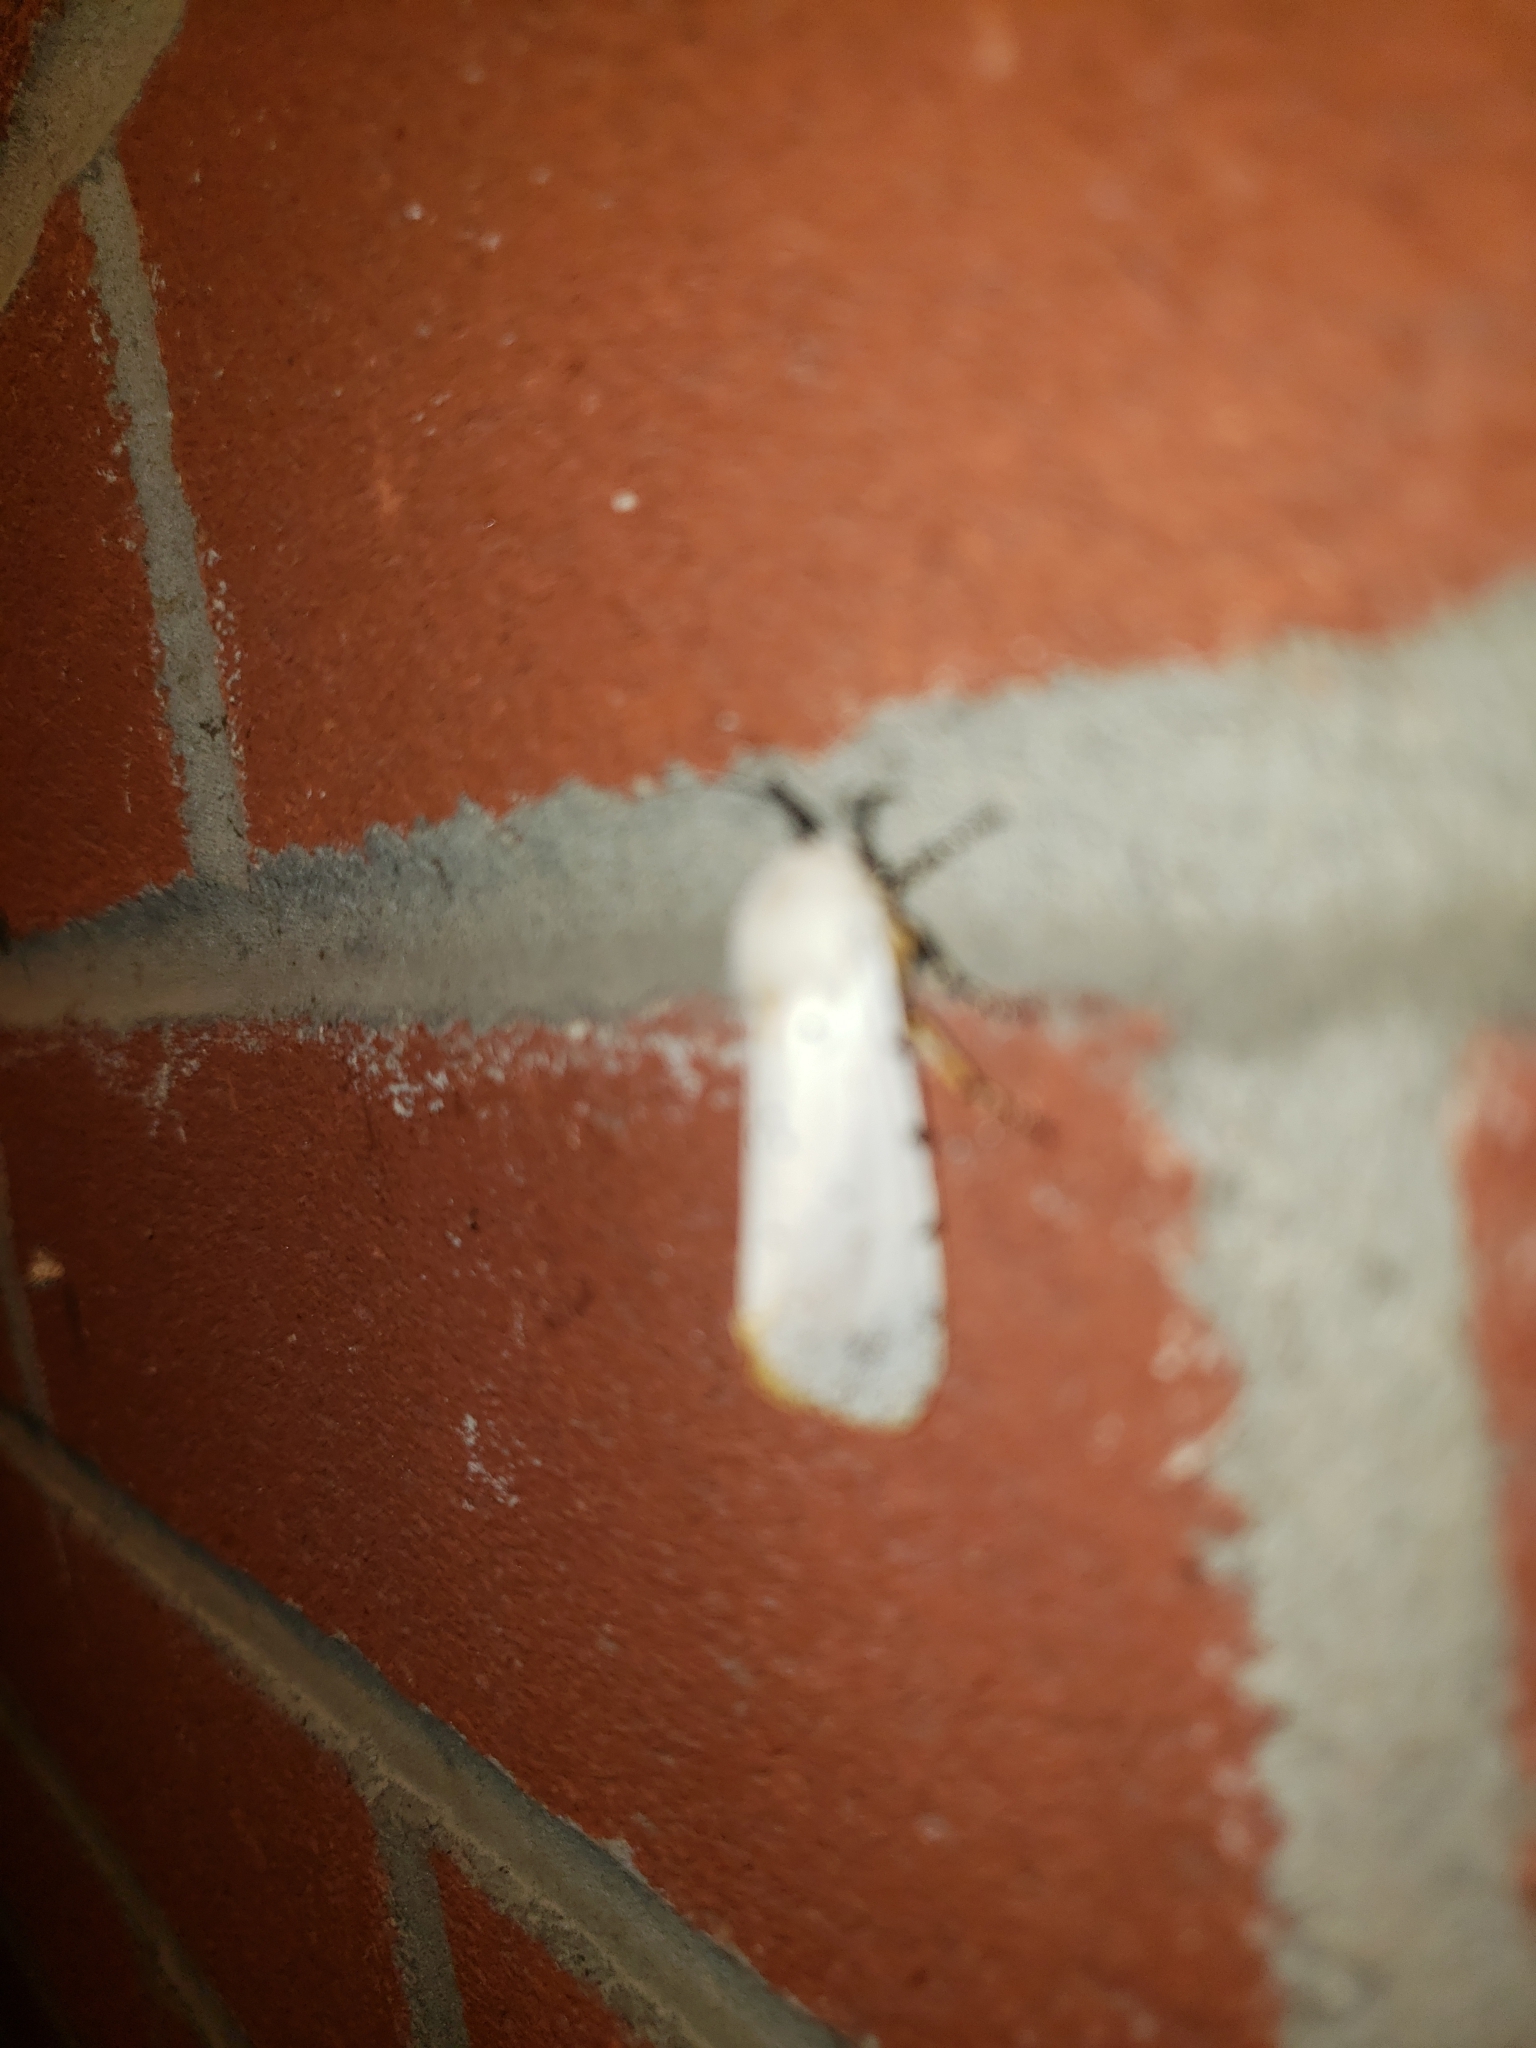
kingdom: Animalia
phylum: Arthropoda
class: Insecta
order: Lepidoptera
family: Erebidae
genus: Estigmene
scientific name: Estigmene acrea
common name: Salt marsh moth
